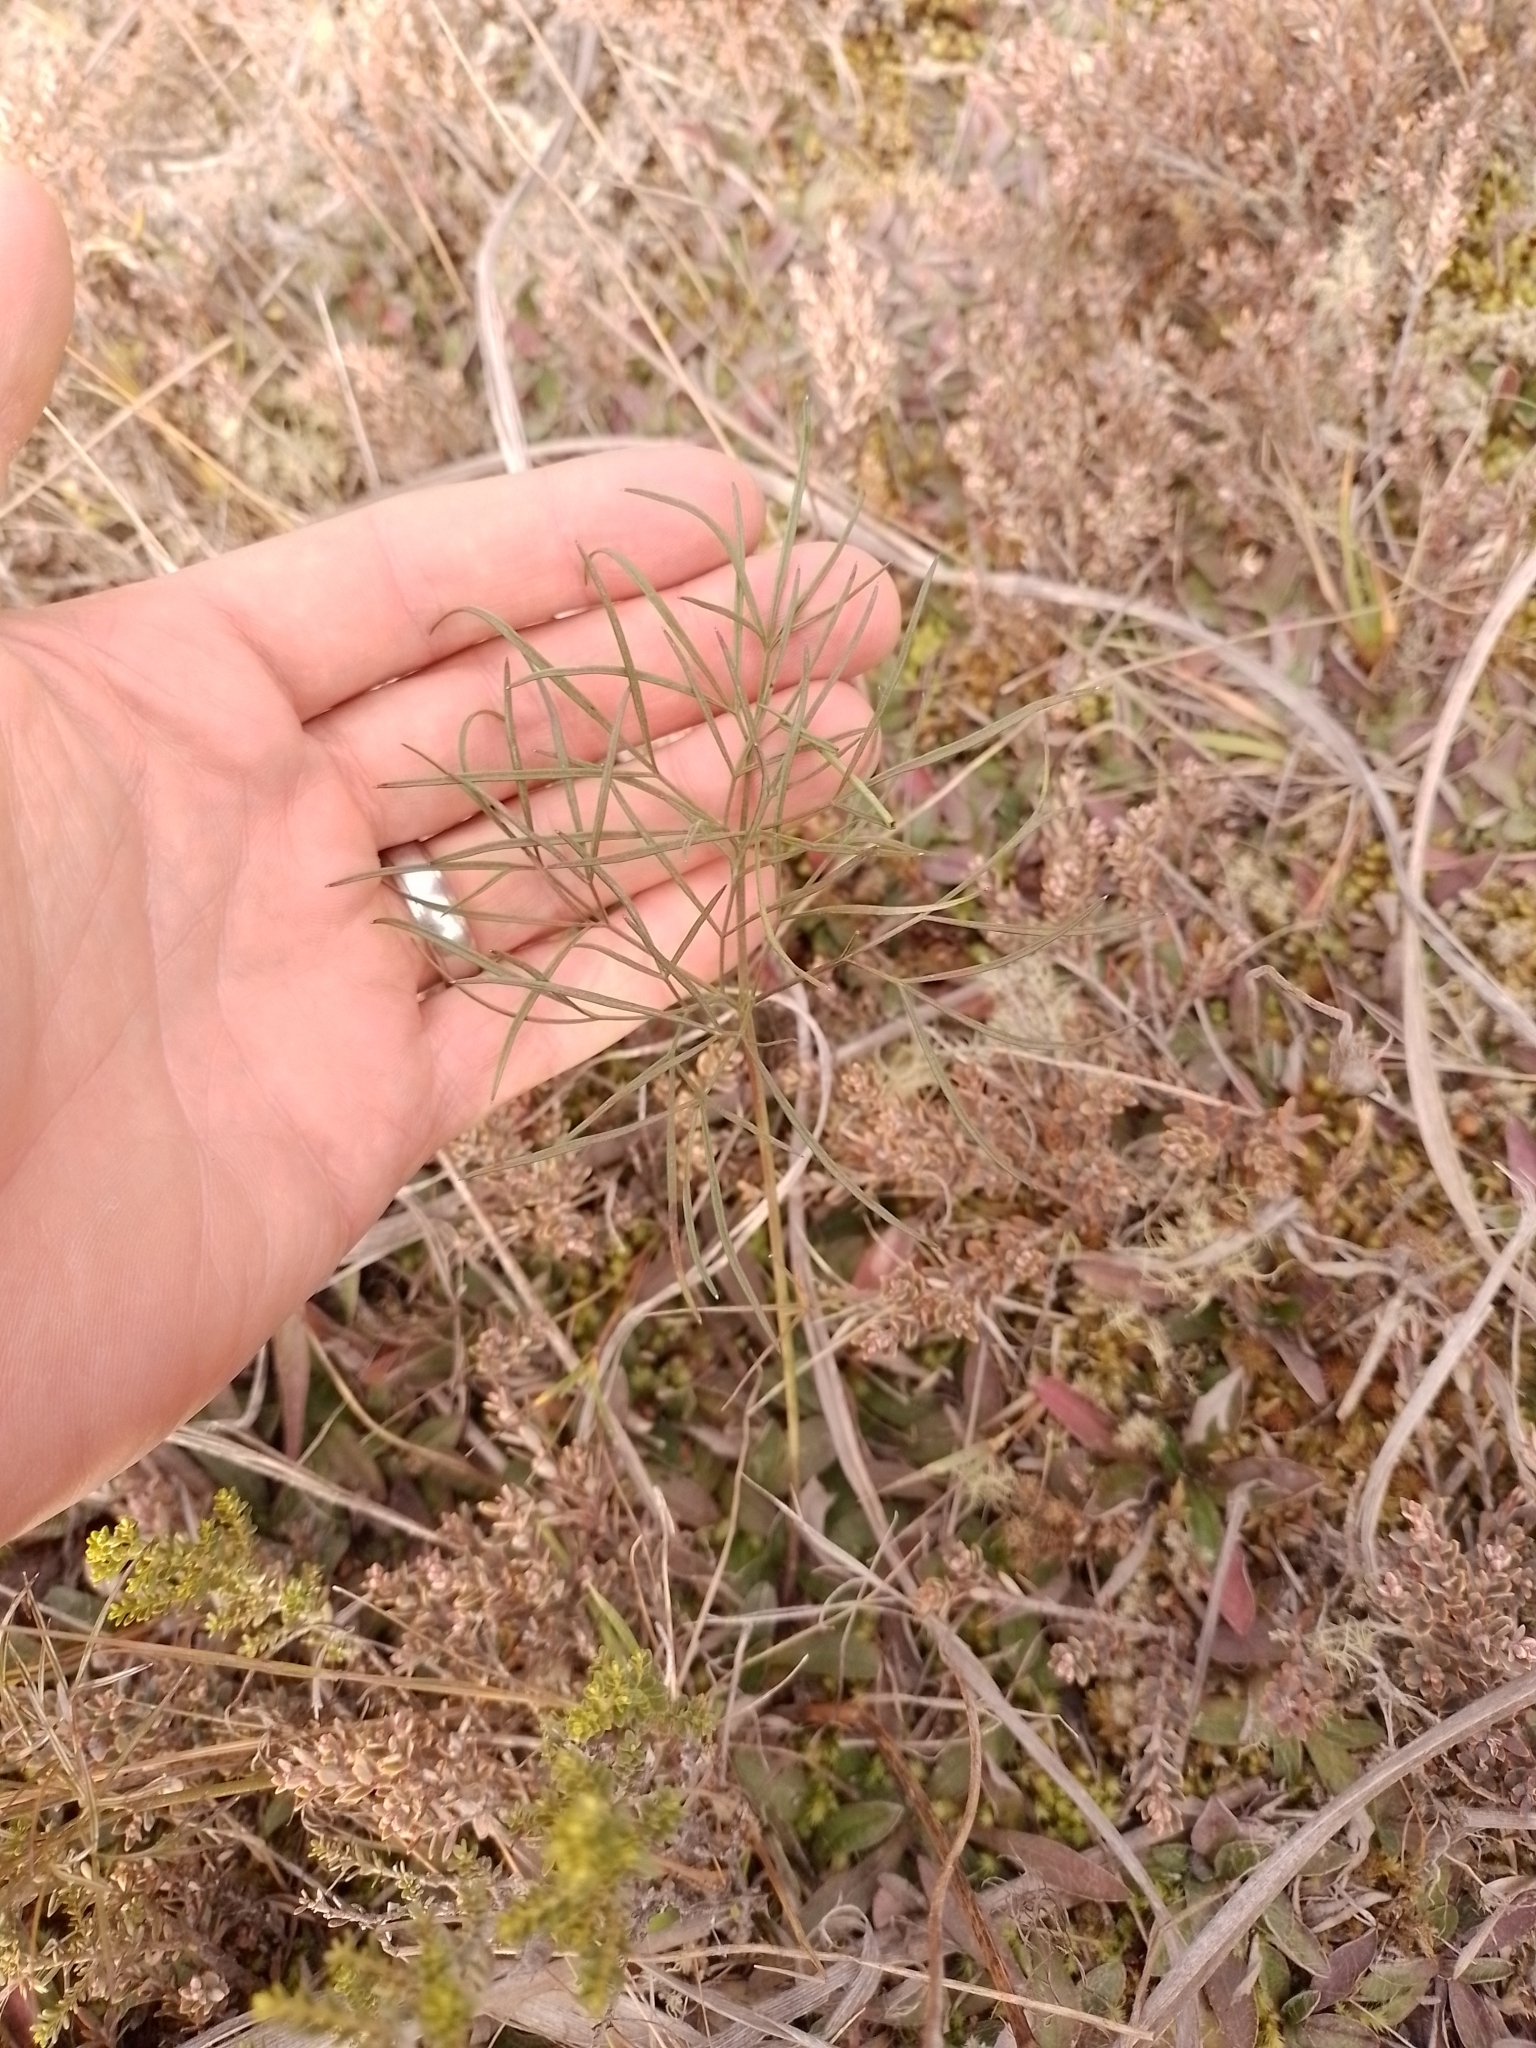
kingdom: Plantae
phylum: Tracheophyta
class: Magnoliopsida
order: Apiales
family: Apiaceae
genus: Anisotome
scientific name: Anisotome filifolia
